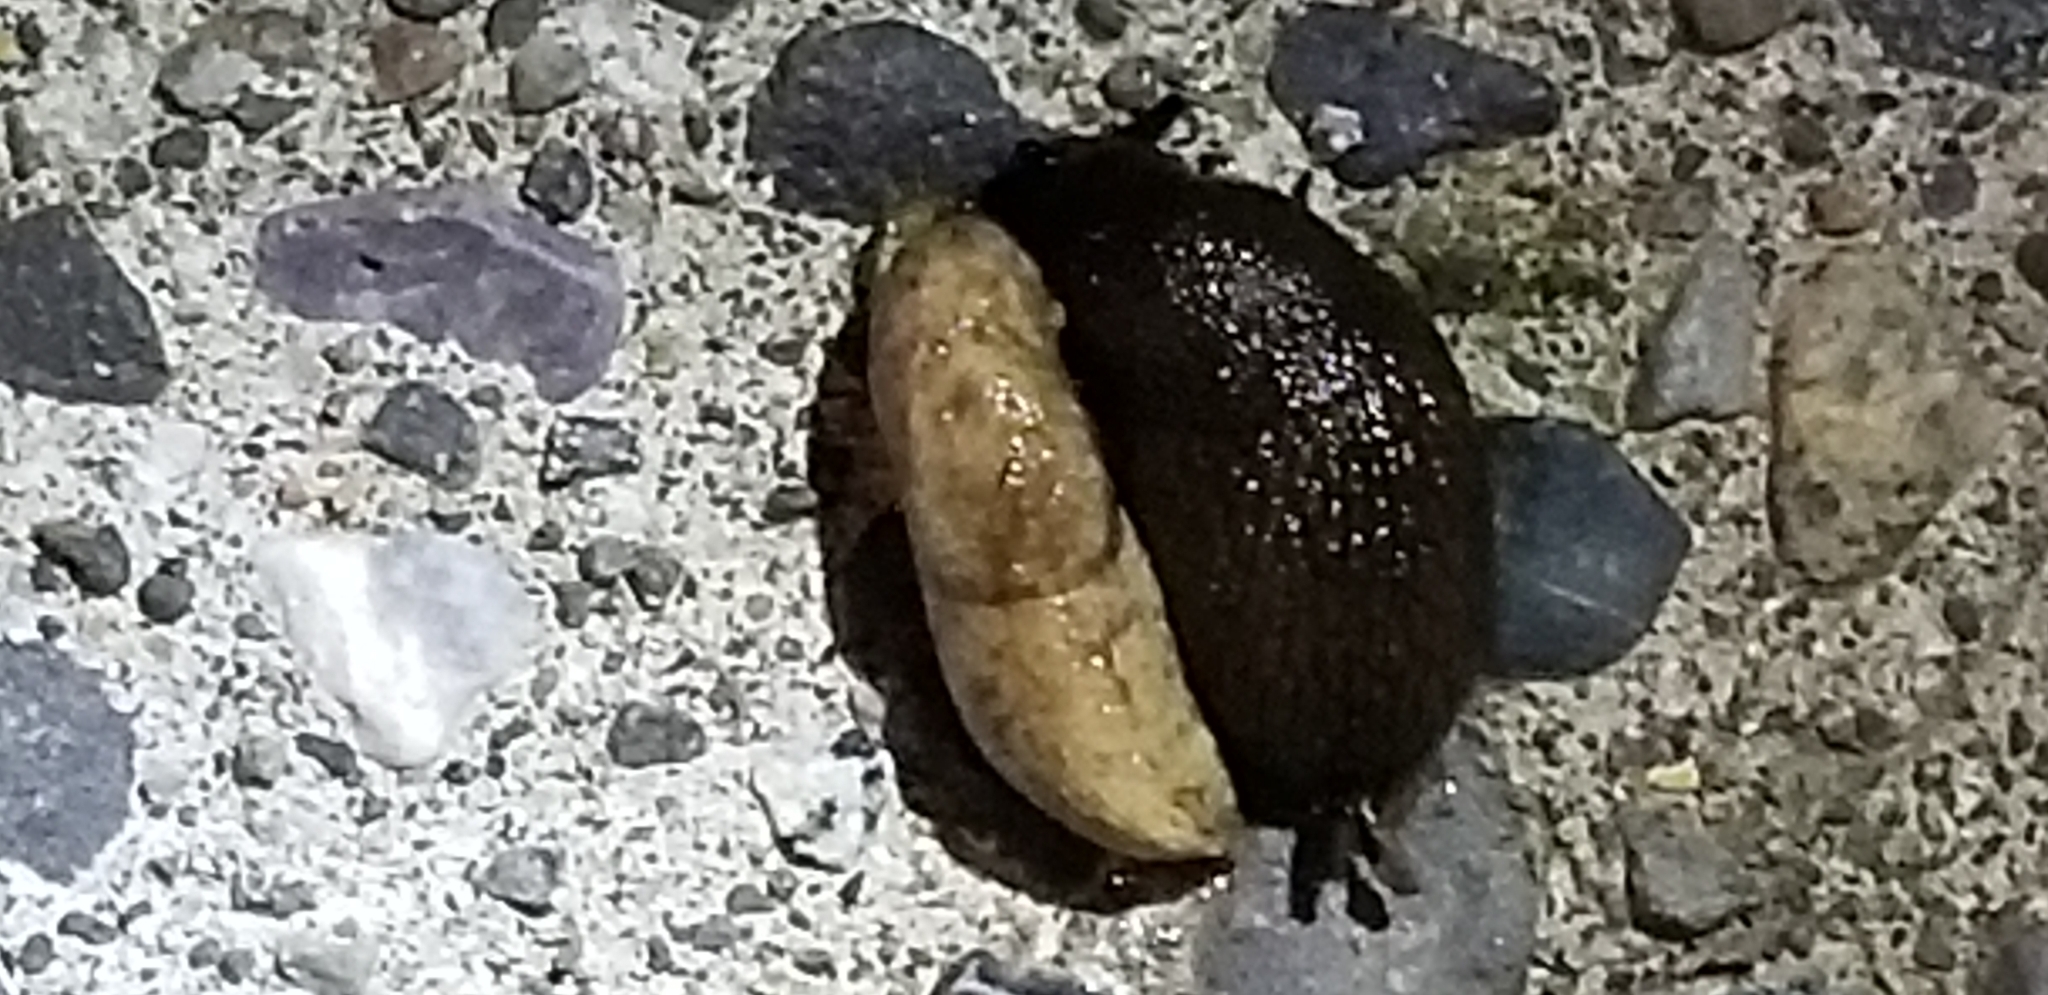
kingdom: Animalia
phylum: Mollusca
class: Gastropoda
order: Stylommatophora
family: Agriolimacidae
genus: Deroceras
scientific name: Deroceras reticulatum
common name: Gray field slug
